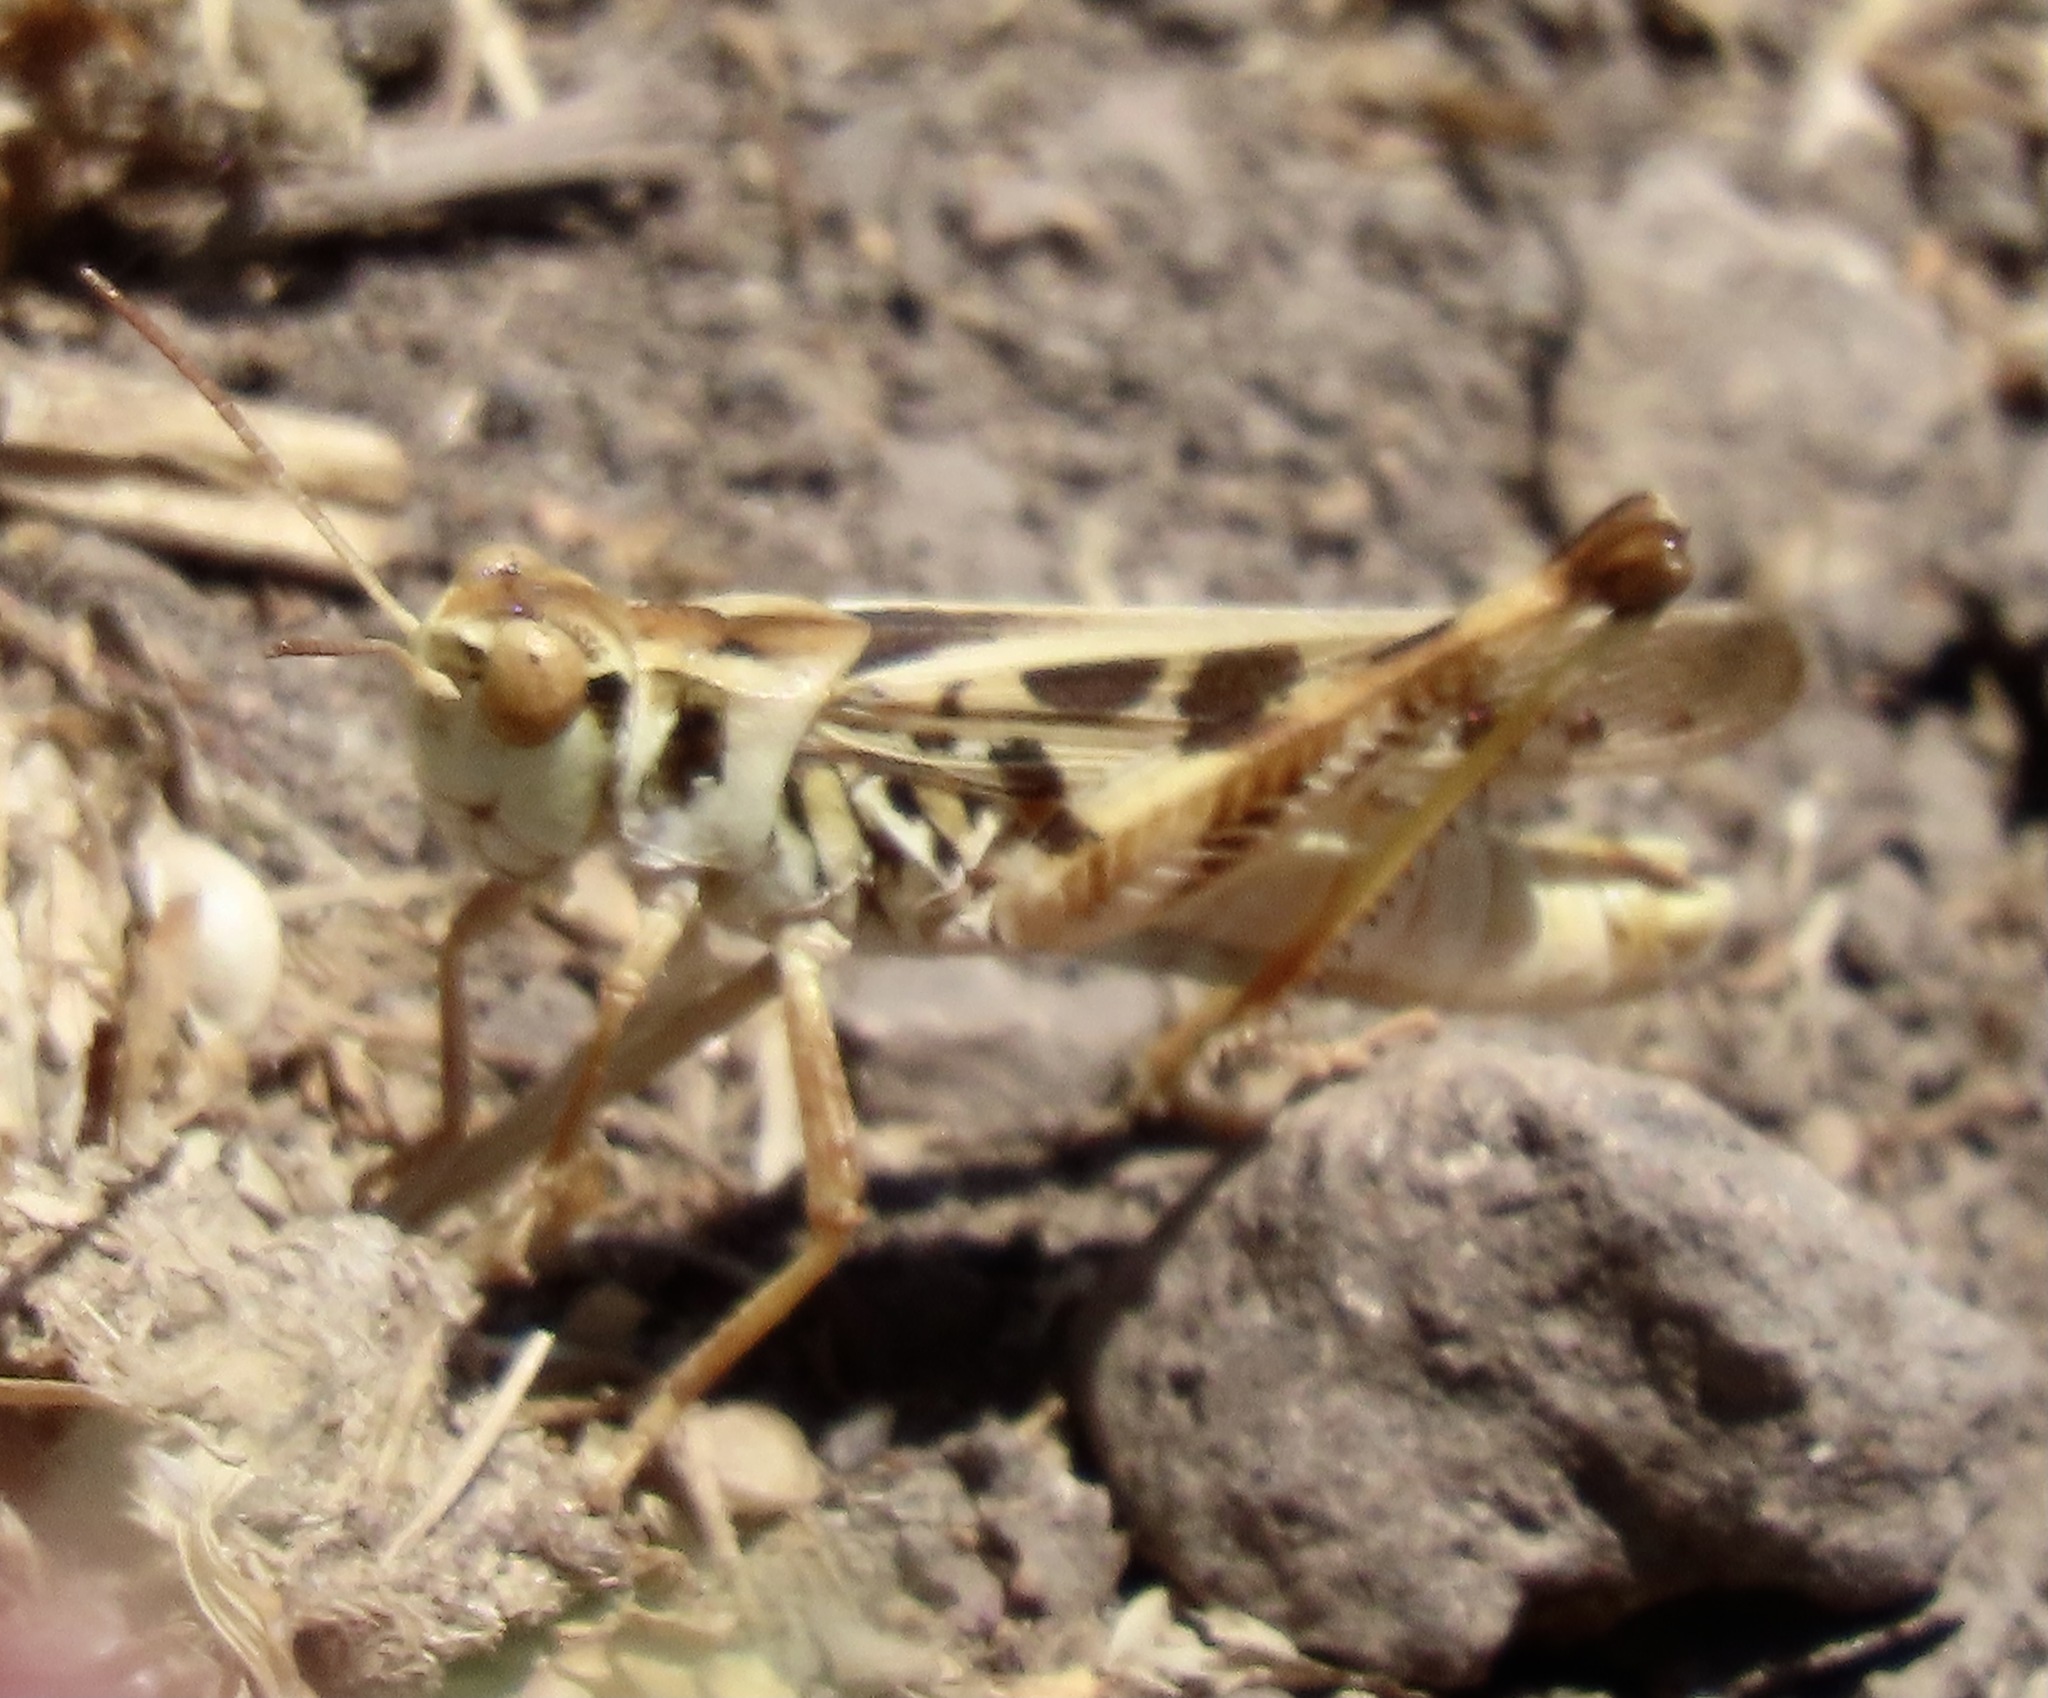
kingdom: Animalia
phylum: Arthropoda
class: Insecta
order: Orthoptera
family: Acrididae
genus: Camnula
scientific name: Camnula pellucida
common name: Clear-winged grasshopper
